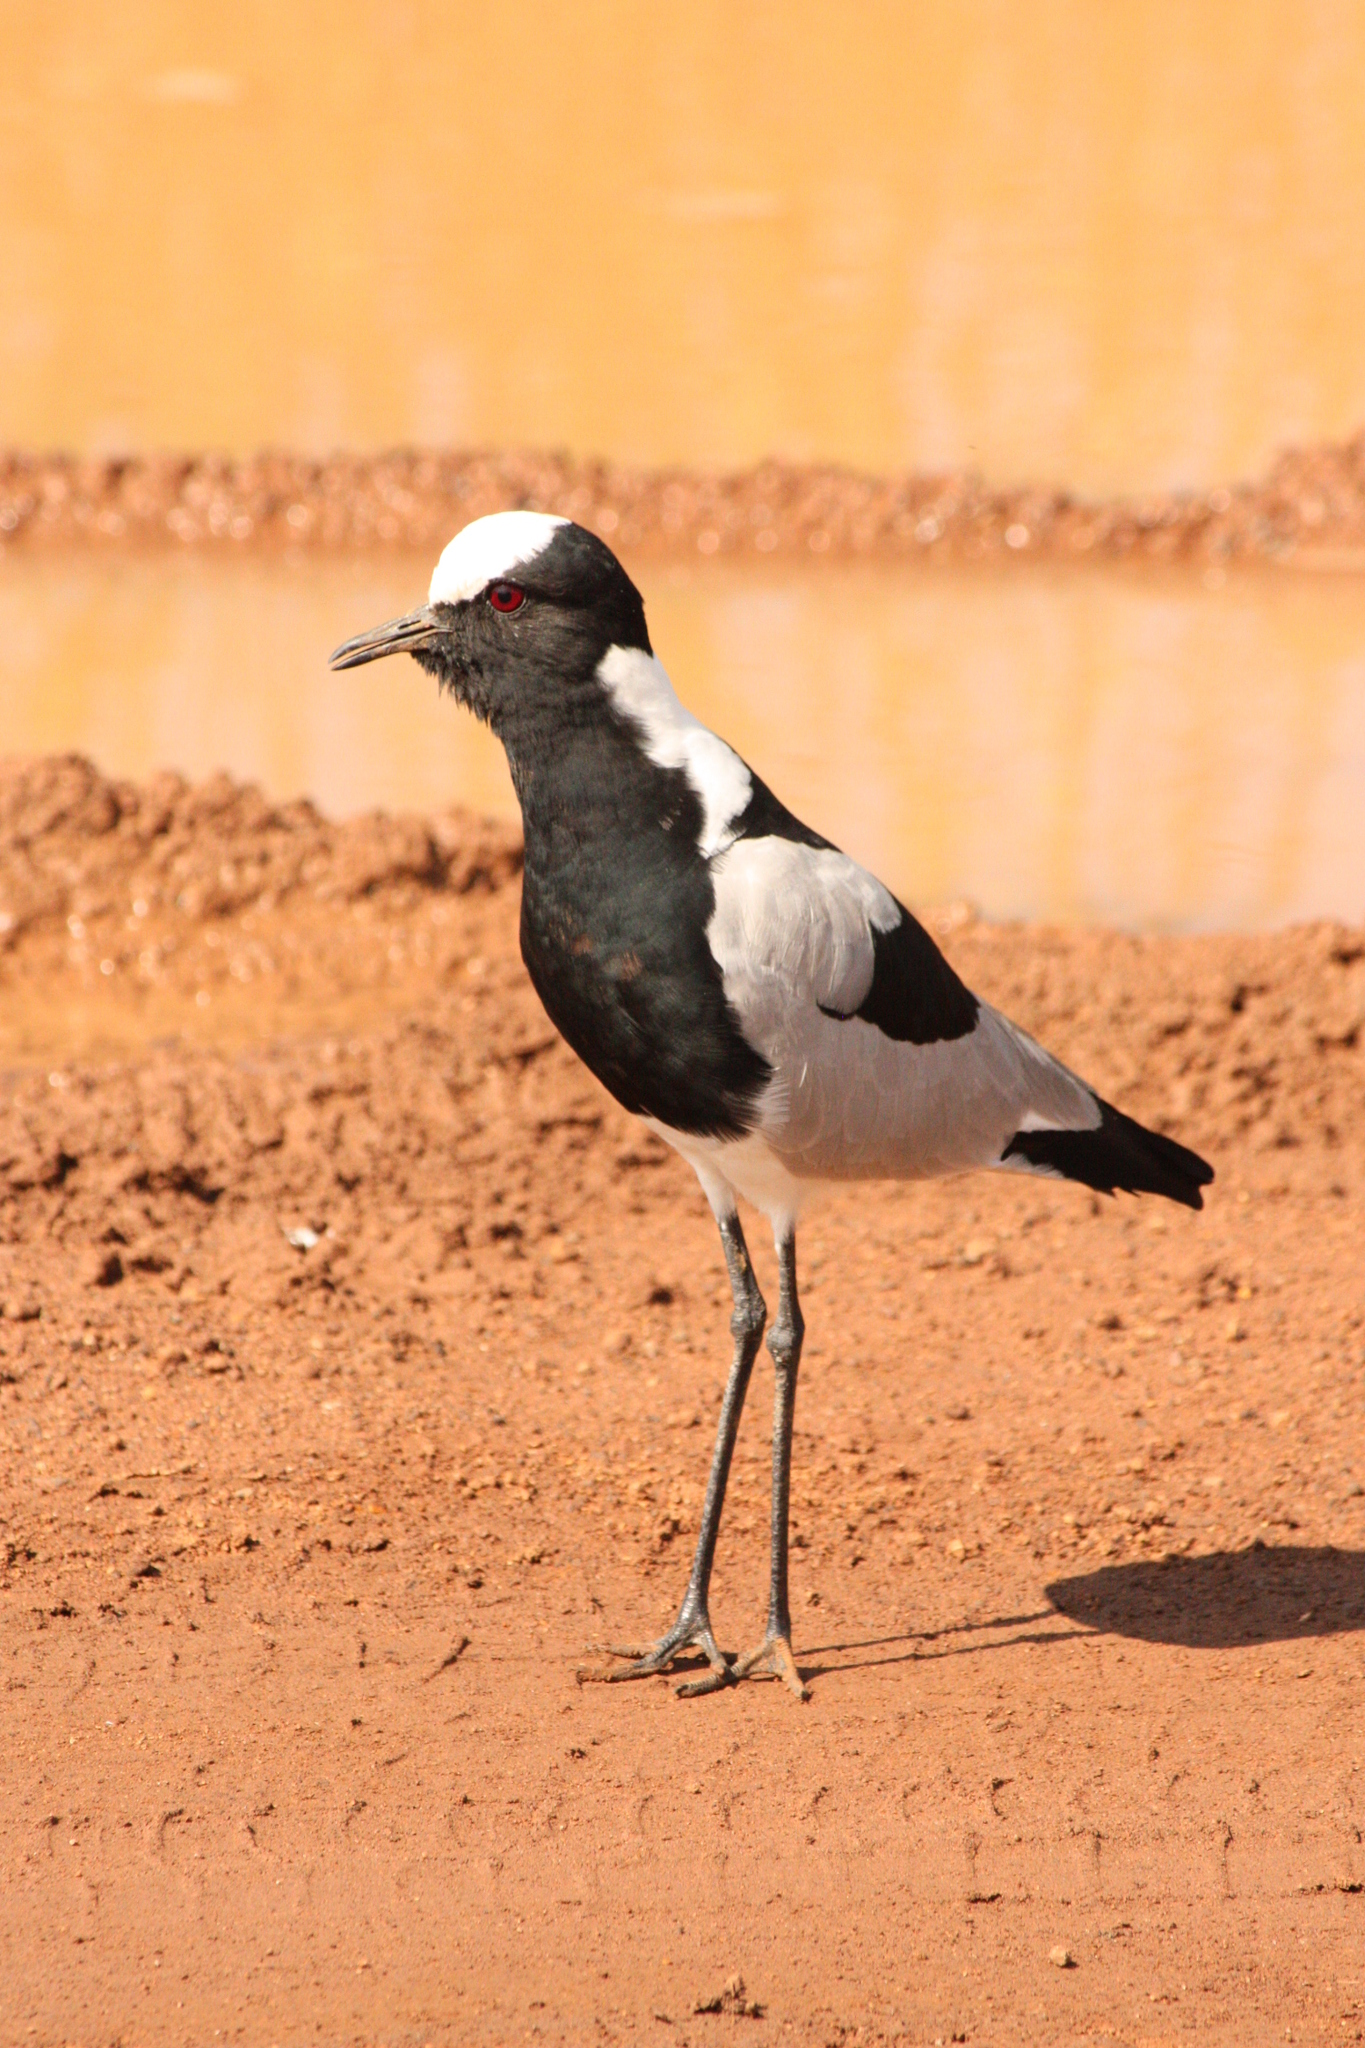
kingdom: Animalia
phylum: Chordata
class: Aves
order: Charadriiformes
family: Charadriidae
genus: Vanellus
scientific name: Vanellus armatus
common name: Blacksmith lapwing
